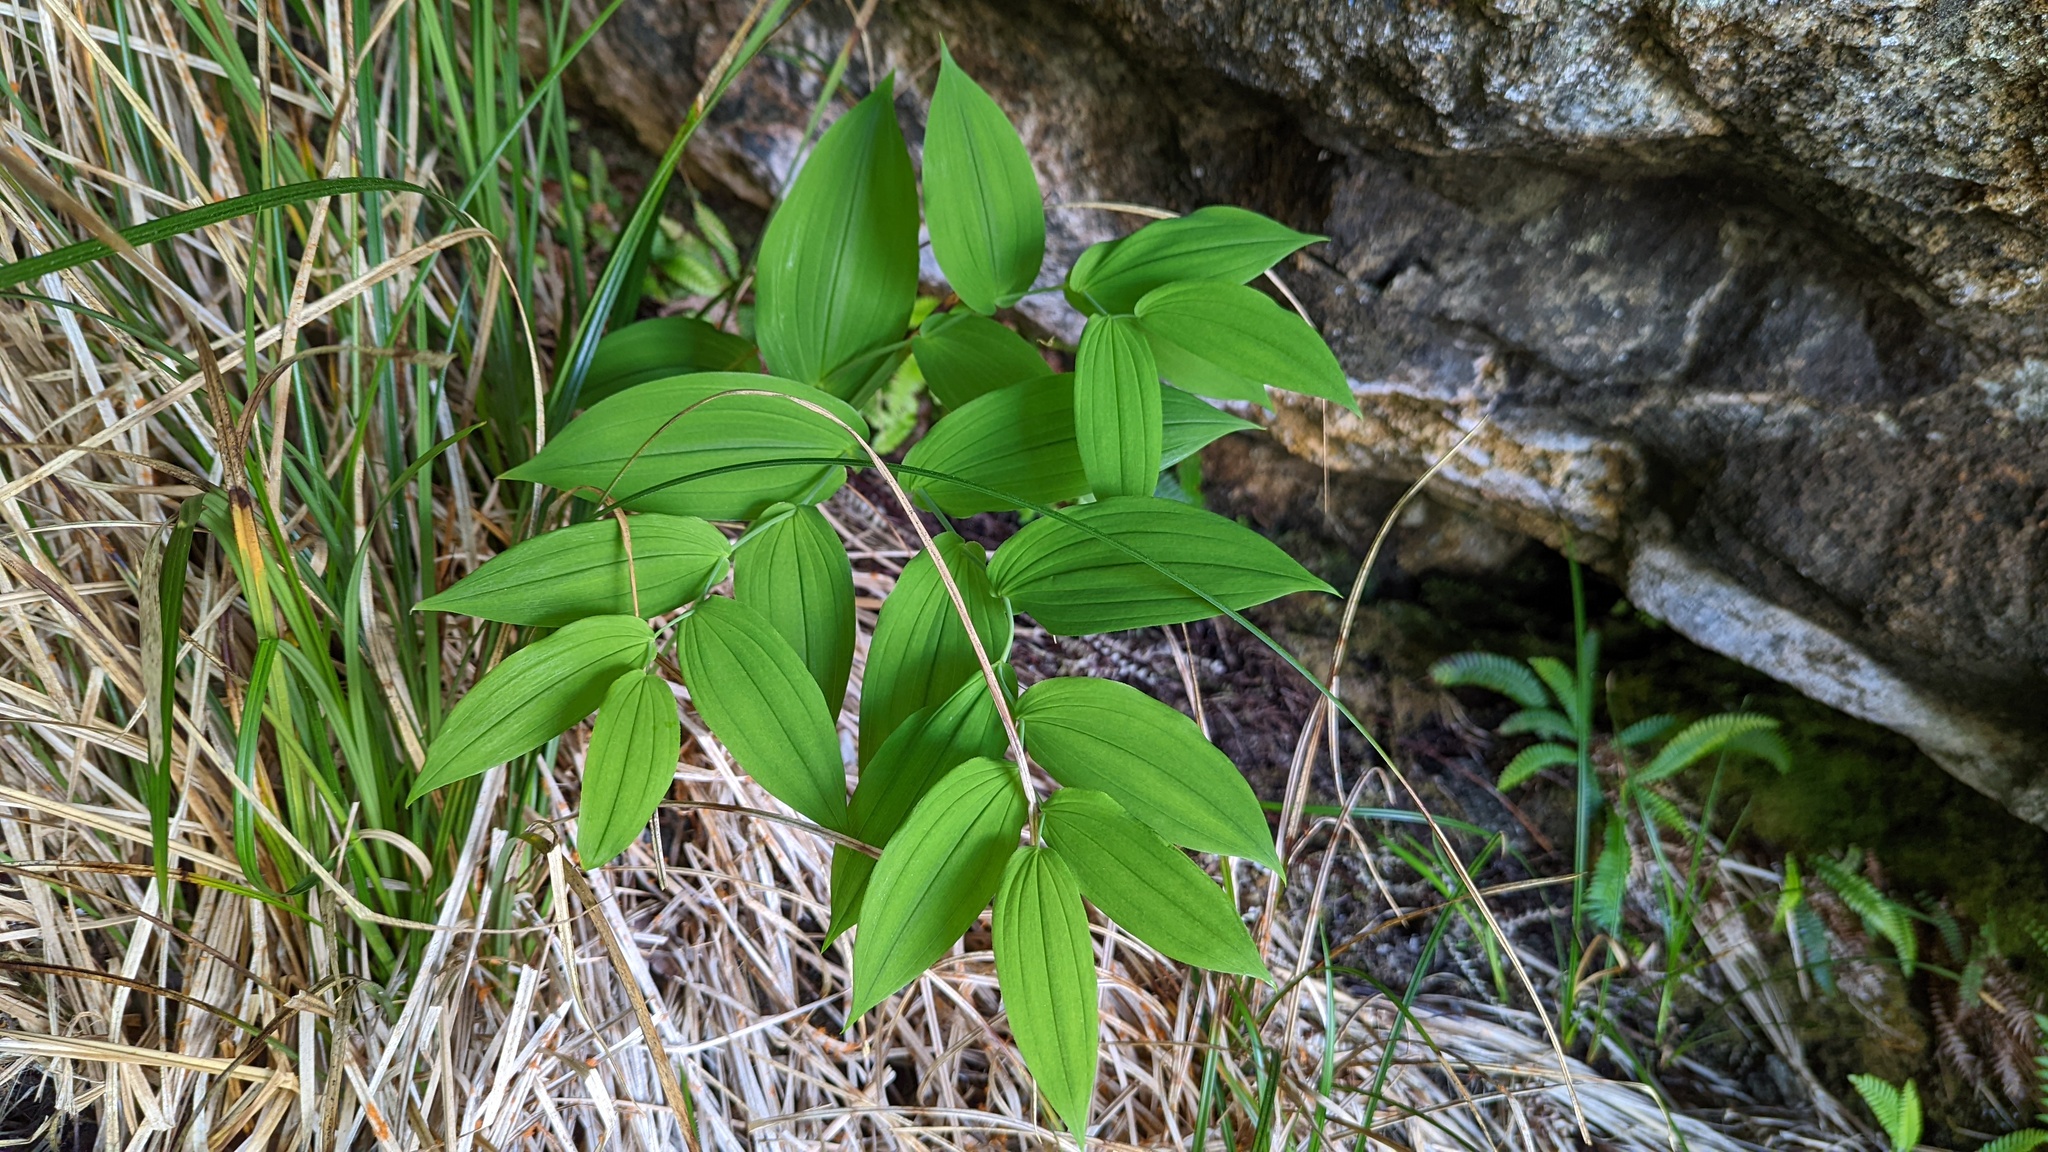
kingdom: Plantae
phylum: Tracheophyta
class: Liliopsida
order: Liliales
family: Liliaceae
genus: Streptopus
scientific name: Streptopus amplexifolius
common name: Clasp twisted stalk
